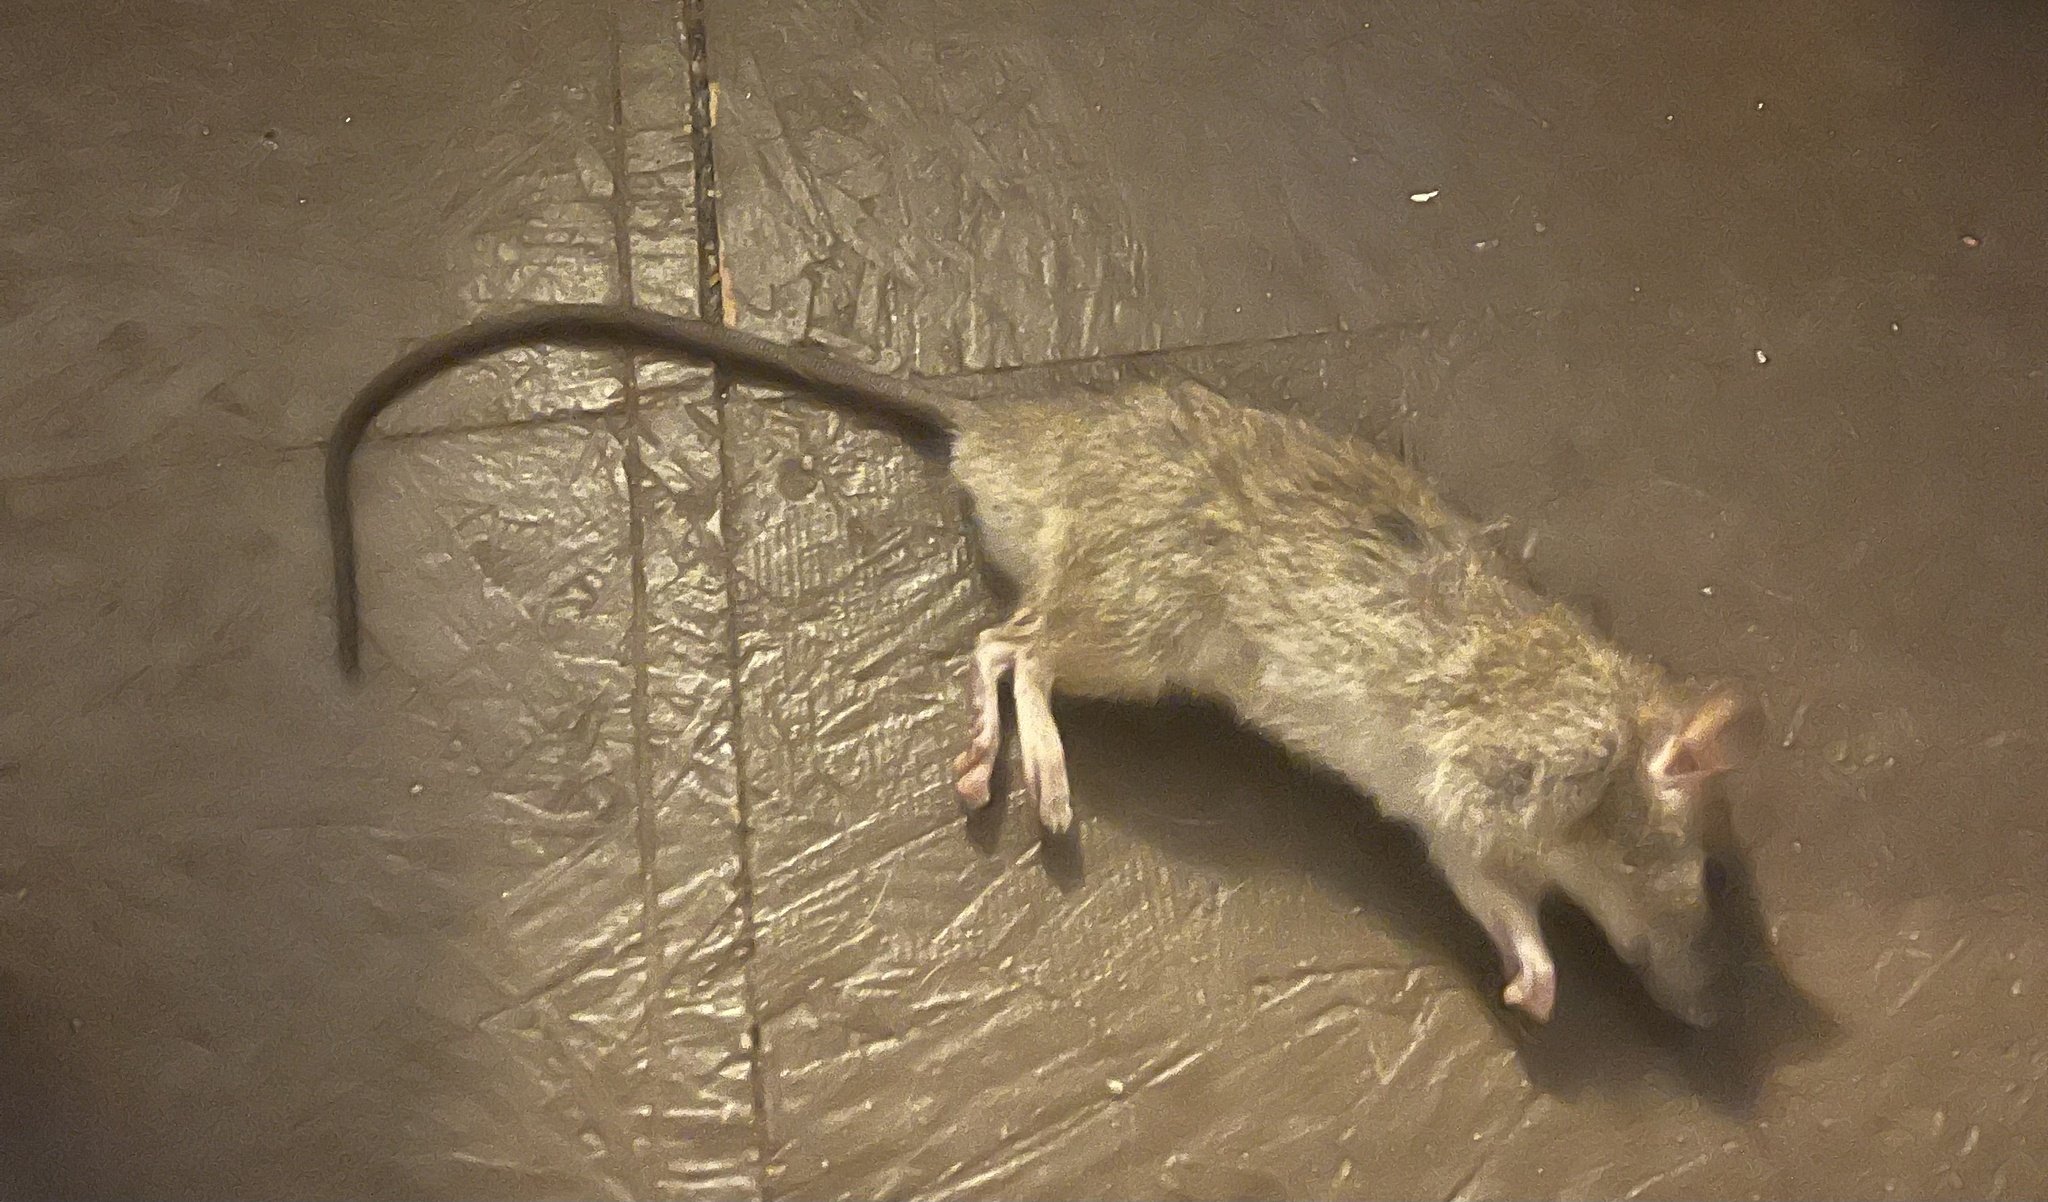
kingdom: Animalia
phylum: Chordata
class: Mammalia
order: Rodentia
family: Muridae
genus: Rattus
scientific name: Rattus norvegicus
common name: Brown rat
